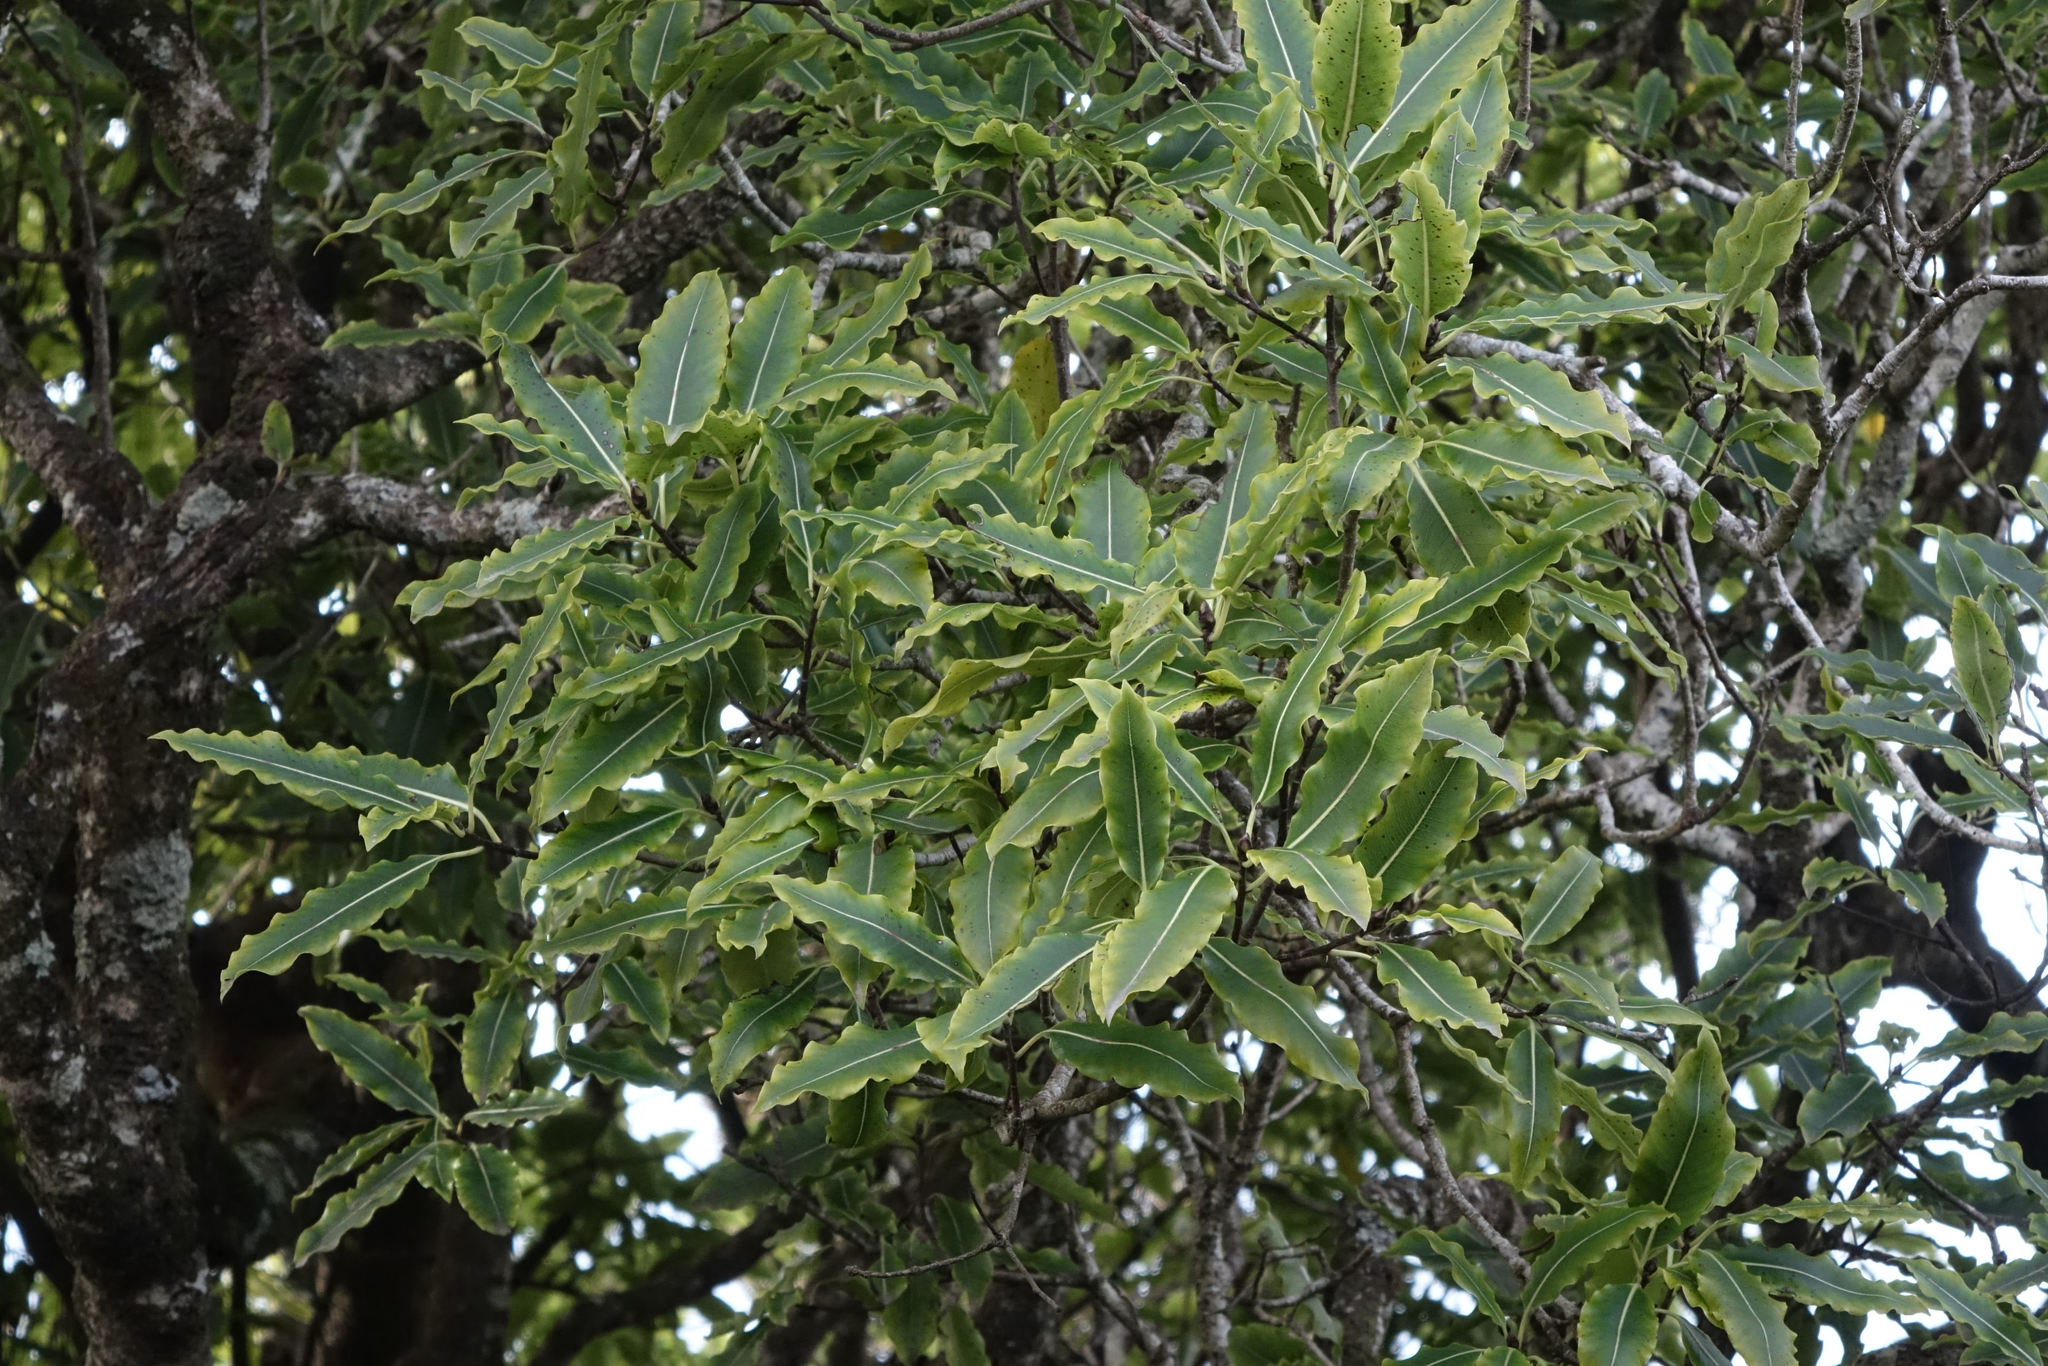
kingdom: Plantae
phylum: Tracheophyta
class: Magnoliopsida
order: Apiales
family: Pittosporaceae
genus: Pittosporum
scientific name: Pittosporum eugenioides
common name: Lemonwood
